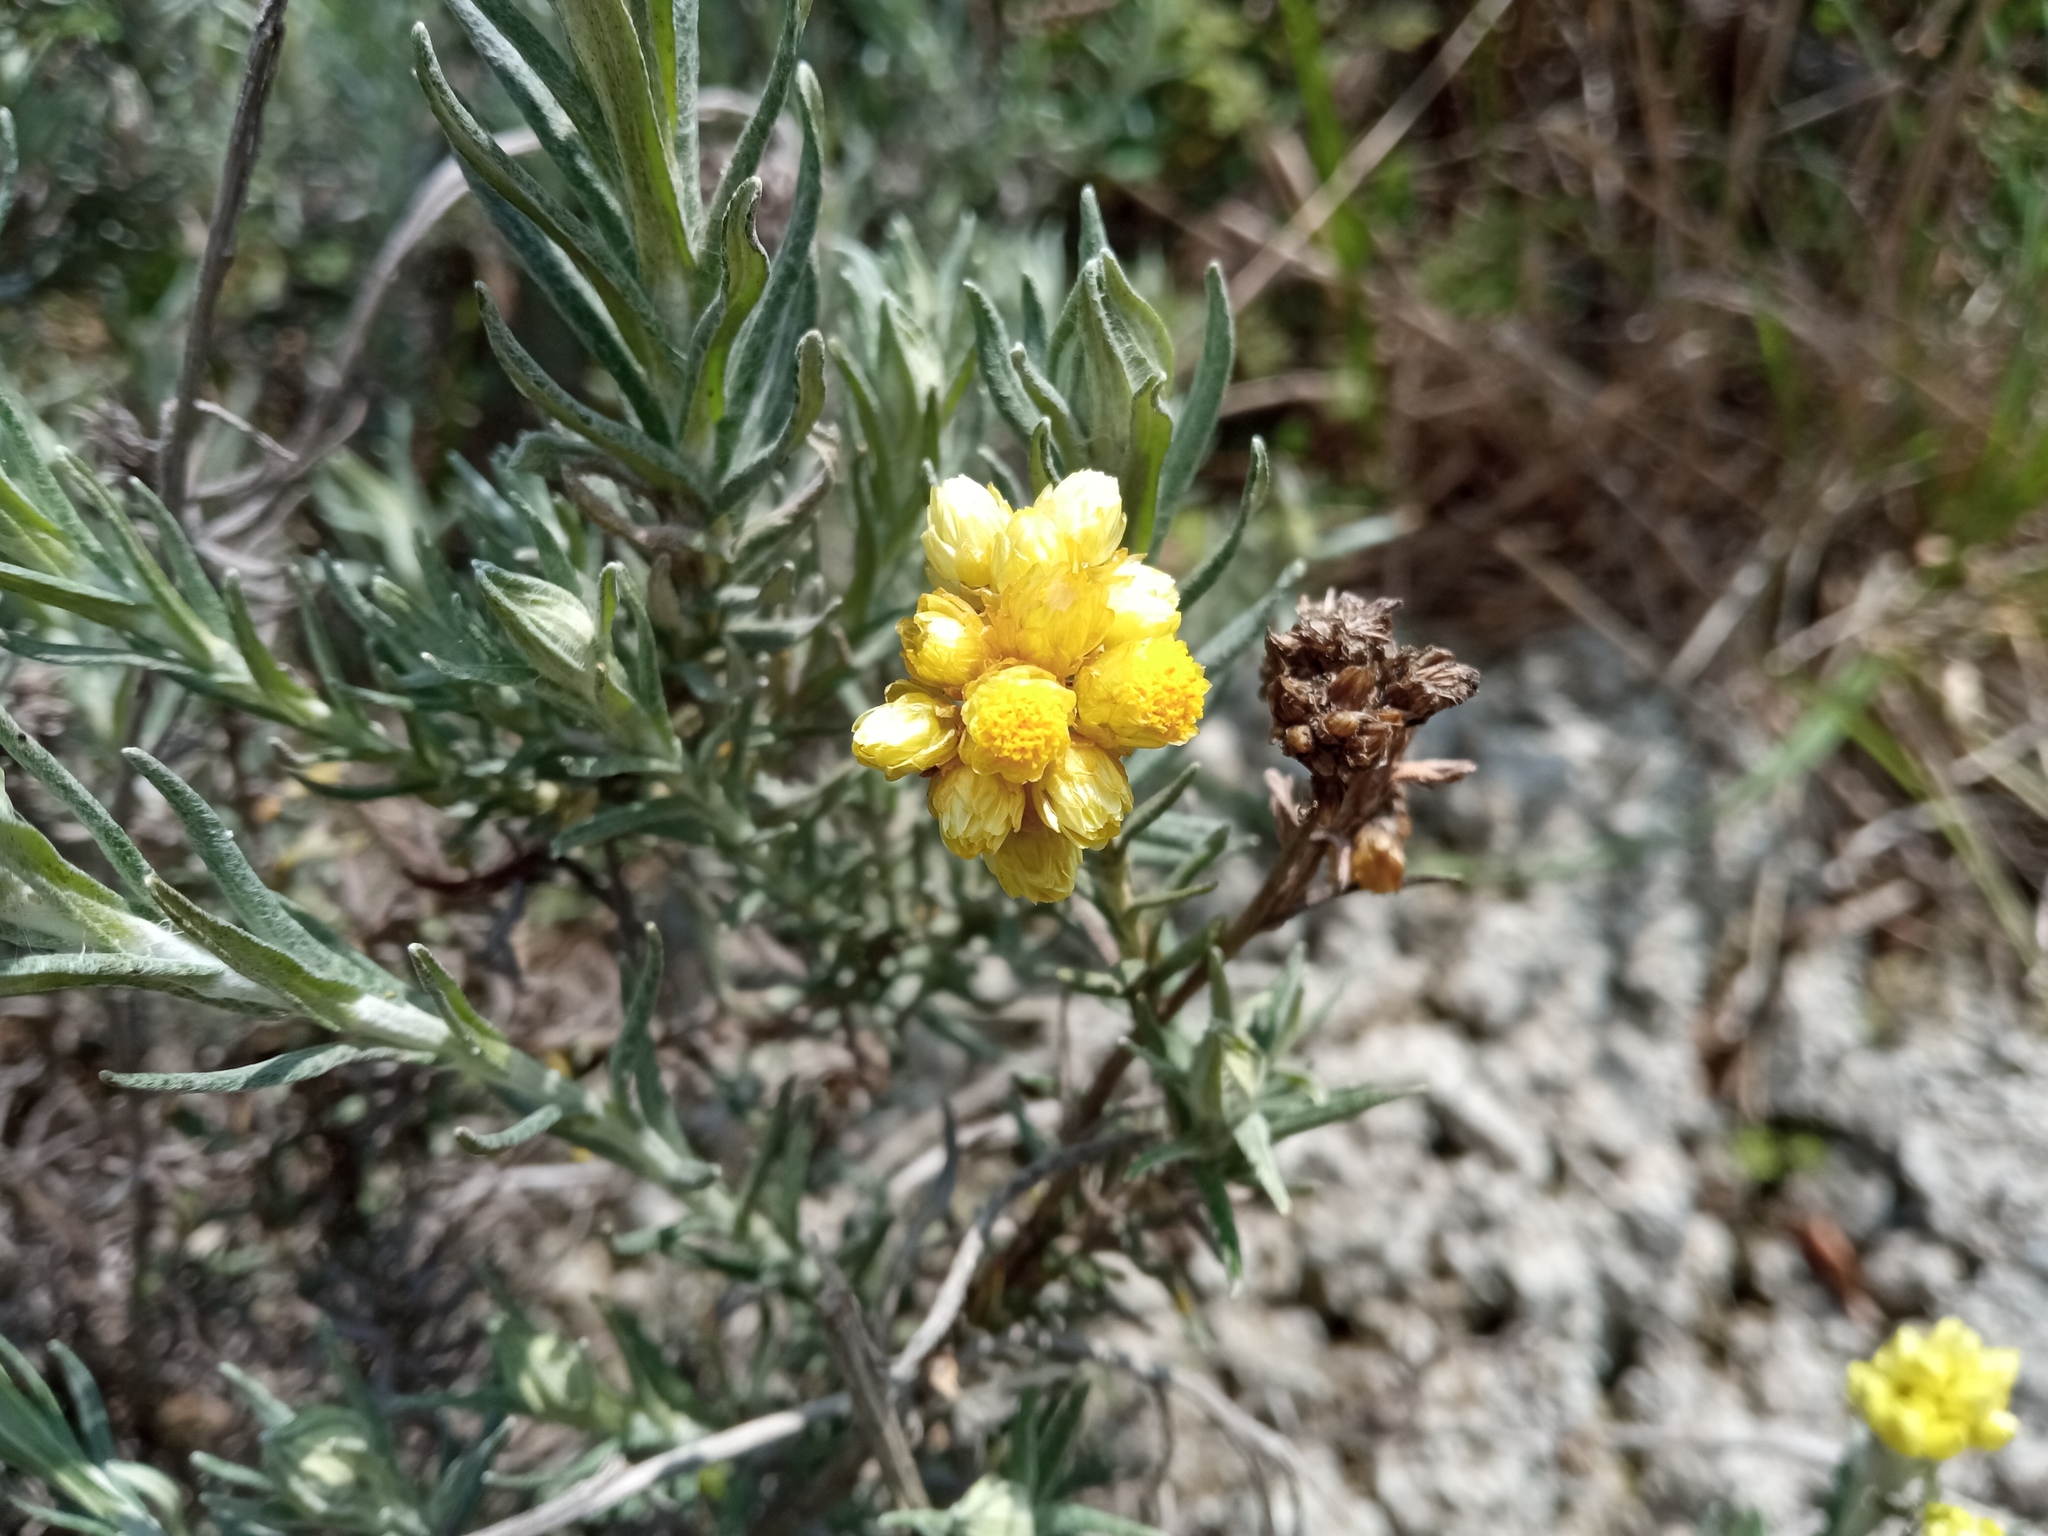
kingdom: Plantae
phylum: Tracheophyta
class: Magnoliopsida
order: Asterales
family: Asteraceae
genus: Helichrysum
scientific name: Helichrysum stoechas
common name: Goldilocks
